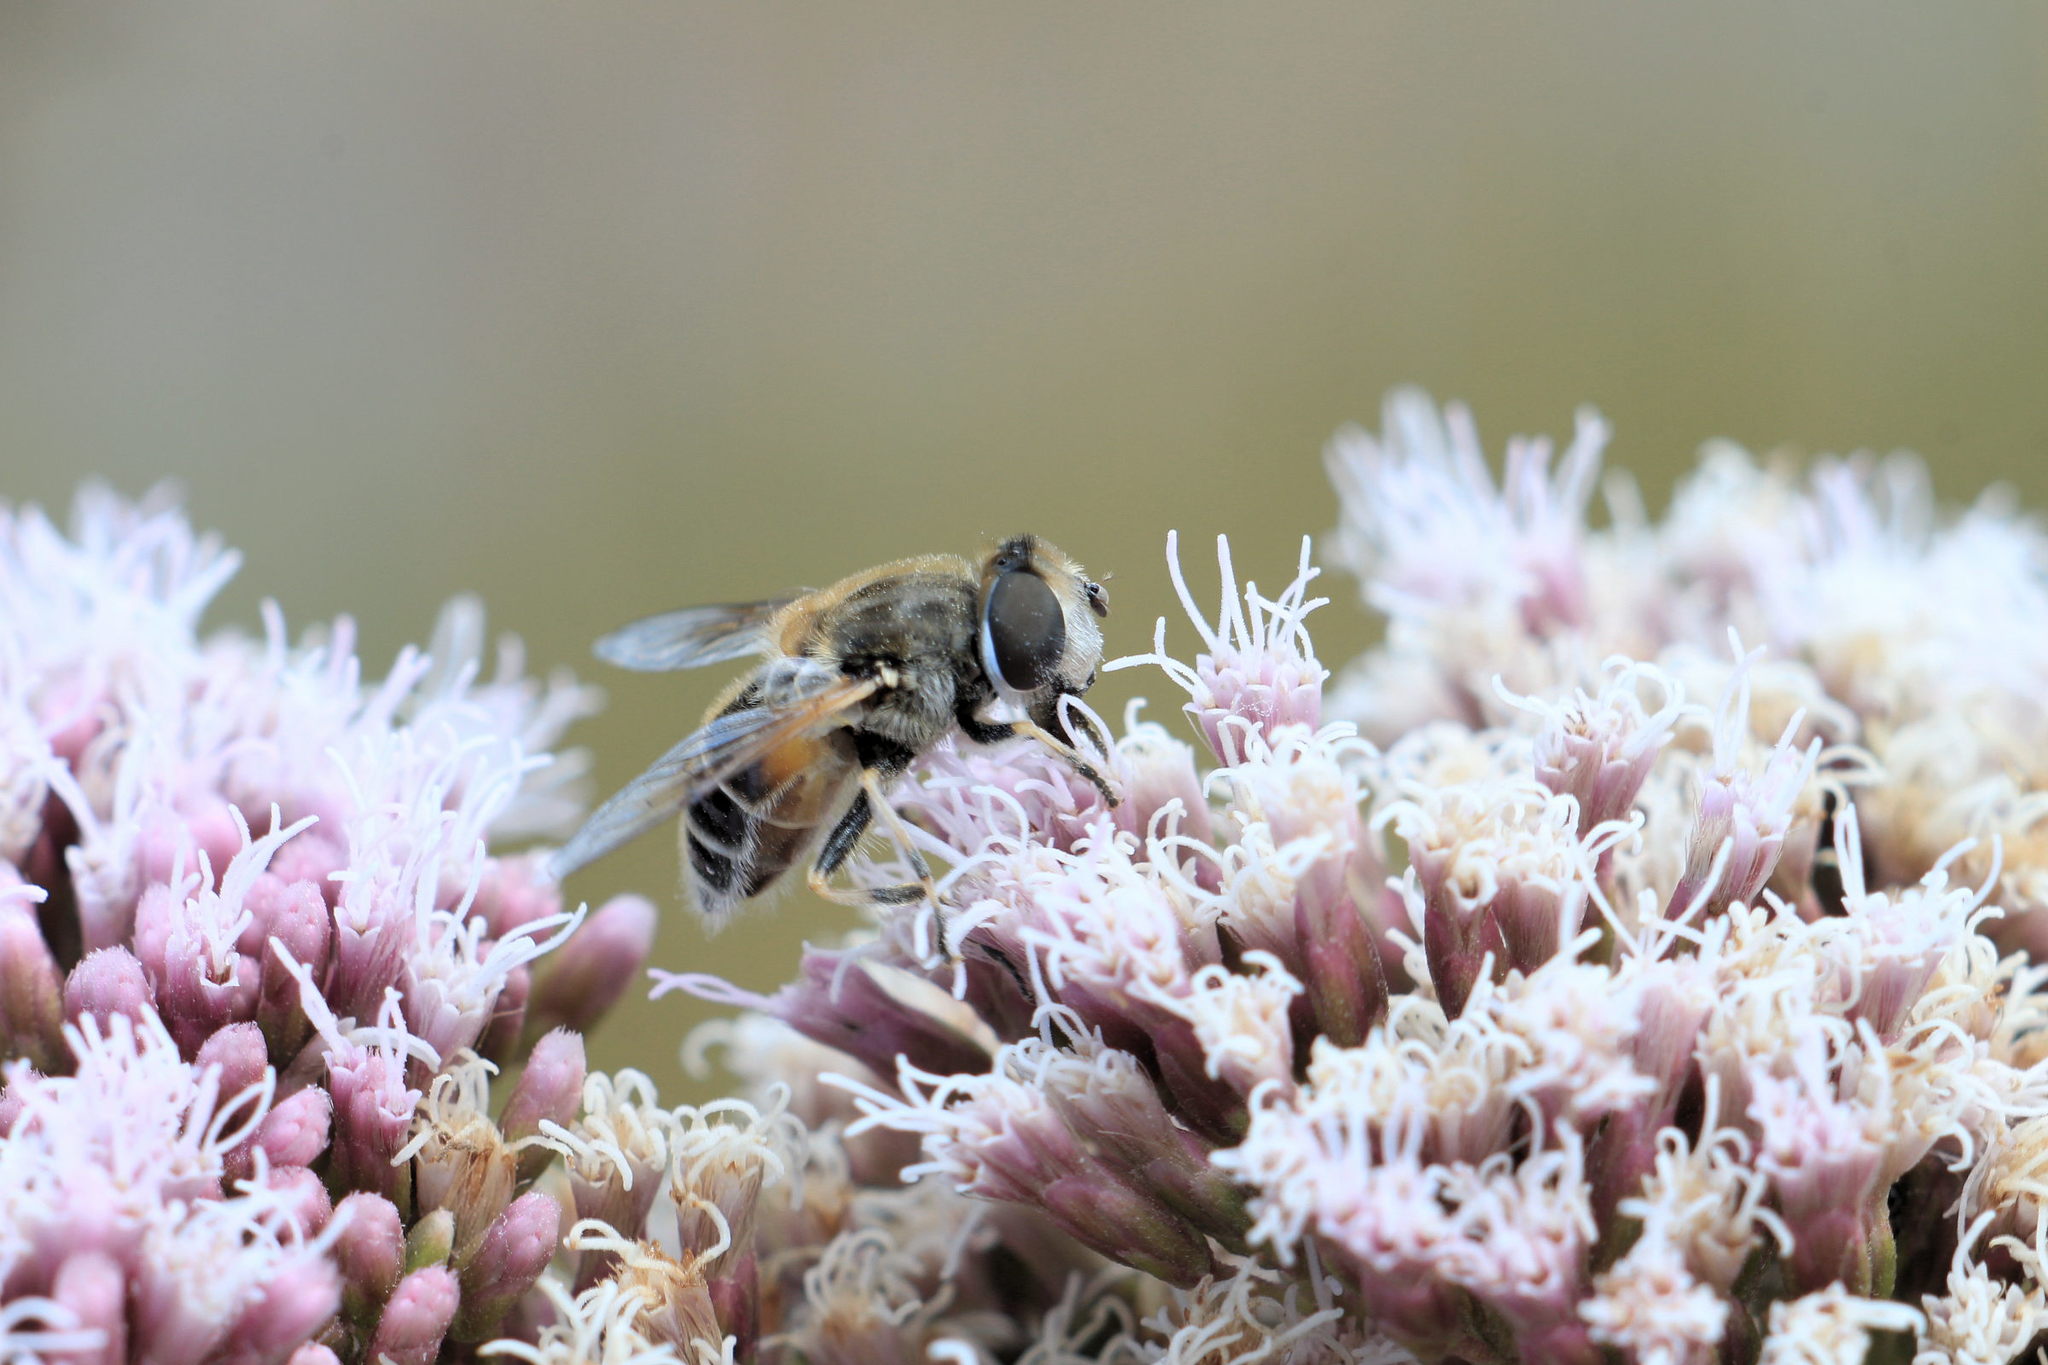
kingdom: Animalia
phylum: Arthropoda
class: Insecta
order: Diptera
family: Syrphidae
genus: Eristalis
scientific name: Eristalis arbustorum
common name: Hover fly
